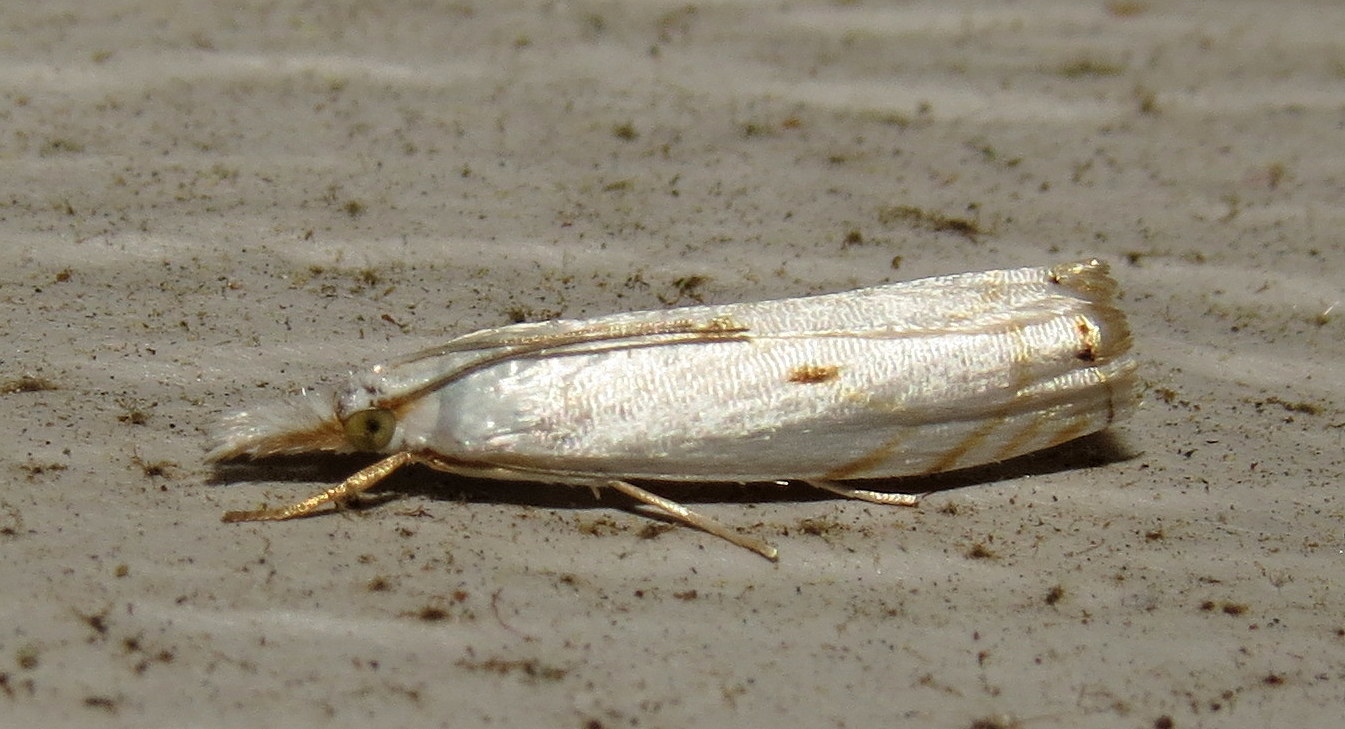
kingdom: Animalia
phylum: Arthropoda
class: Insecta
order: Lepidoptera
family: Crambidae
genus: Microcrambus
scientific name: Microcrambus biguttellus
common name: Gold-stripe grass-veneer moth
